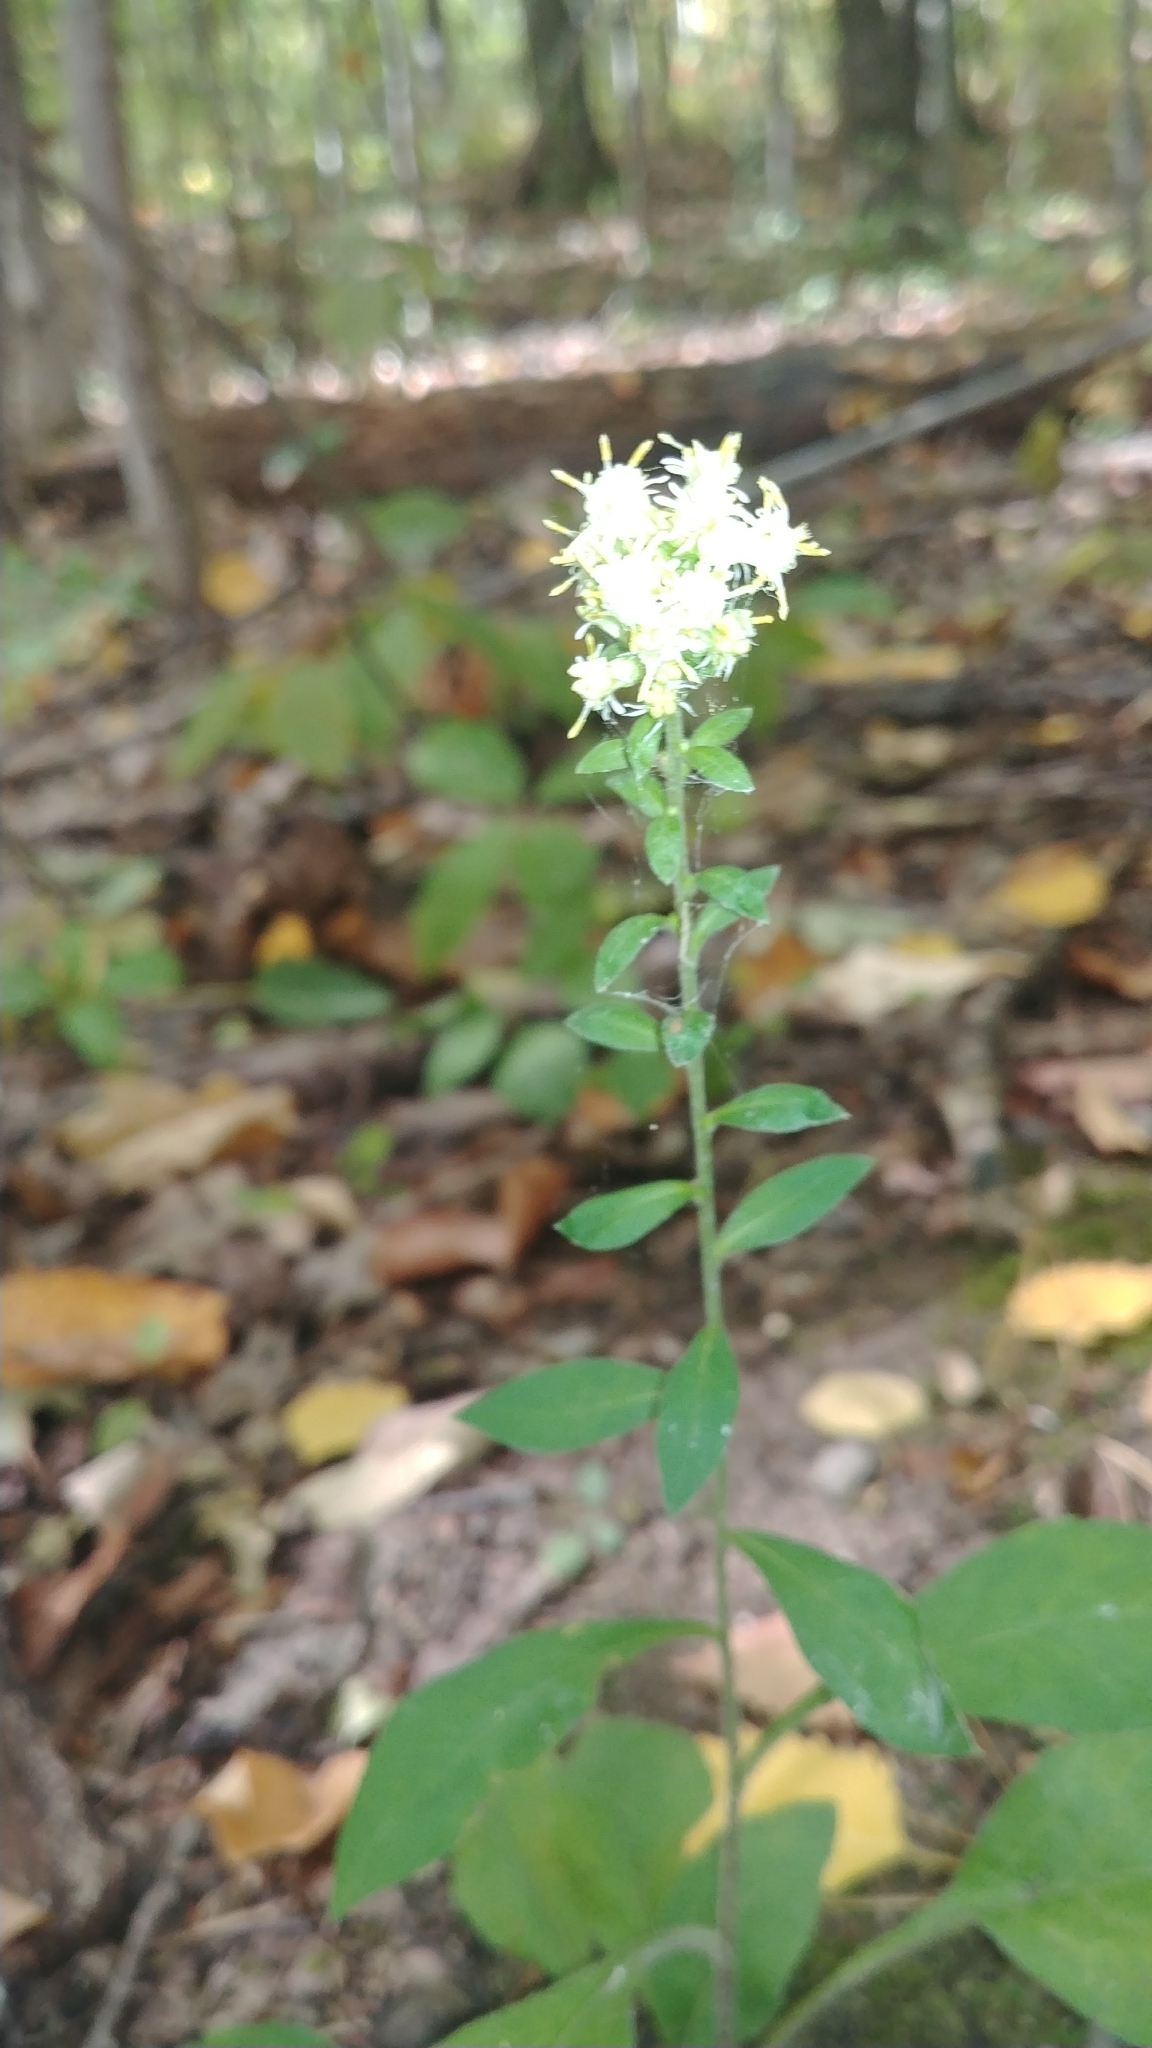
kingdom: Plantae
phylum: Tracheophyta
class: Magnoliopsida
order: Asterales
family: Asteraceae
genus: Solidago
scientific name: Solidago bicolor
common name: Silverrod
